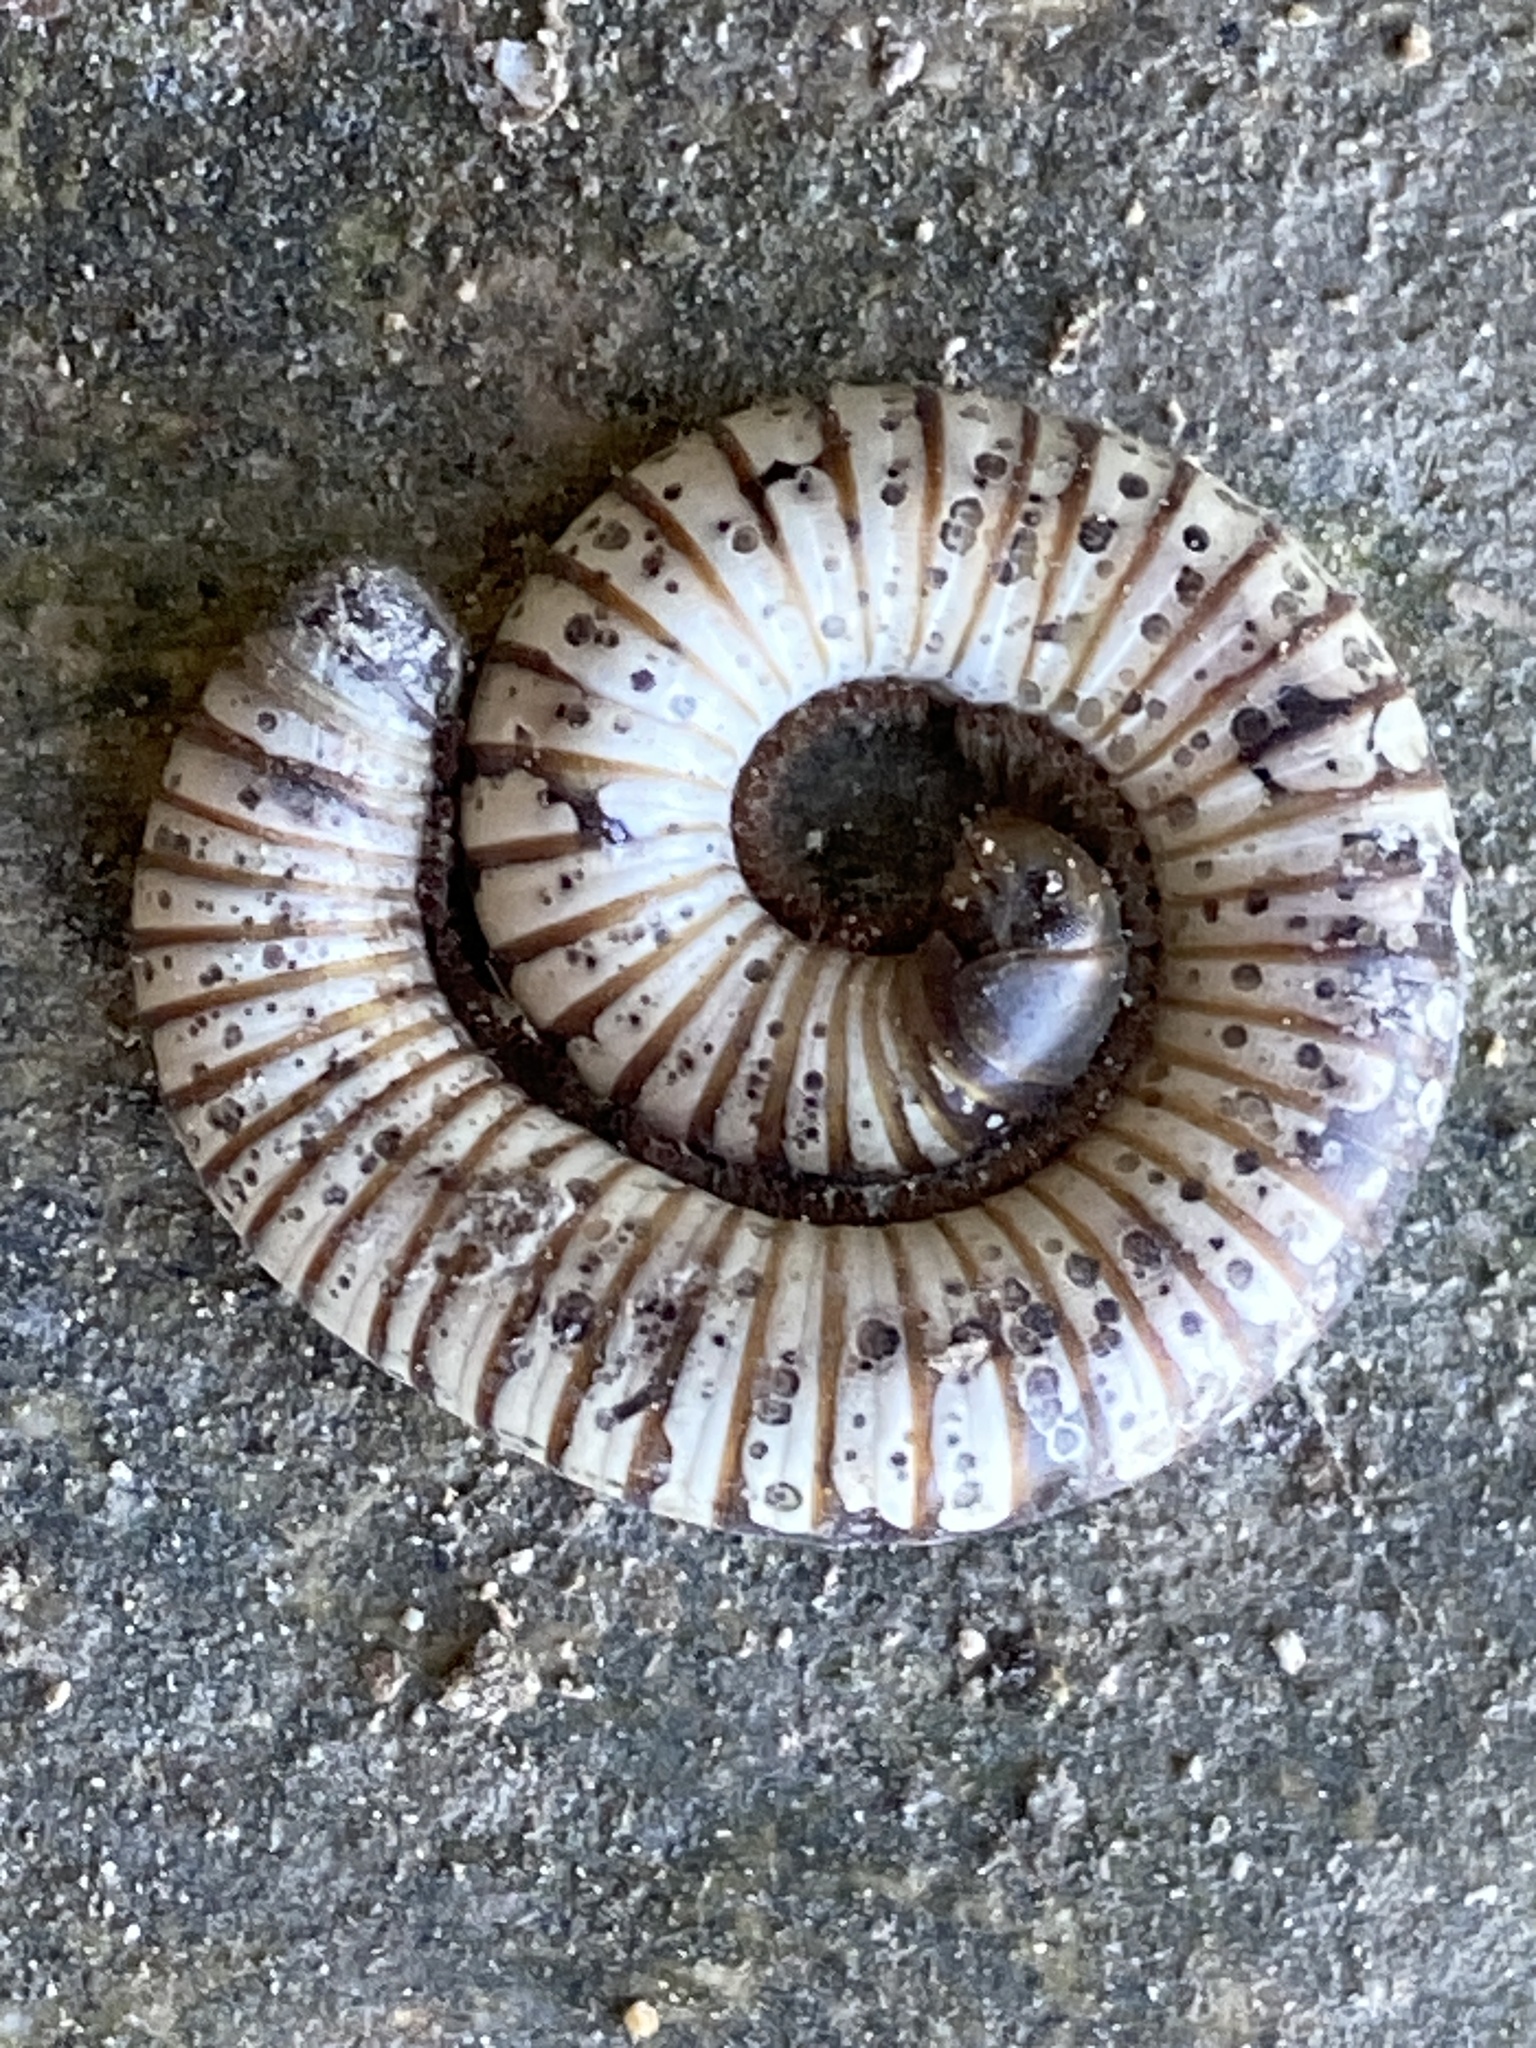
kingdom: Animalia
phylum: Arthropoda
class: Diplopoda
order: Julida
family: Julidae
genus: Pachyiulus
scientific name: Pachyiulus flavipes
